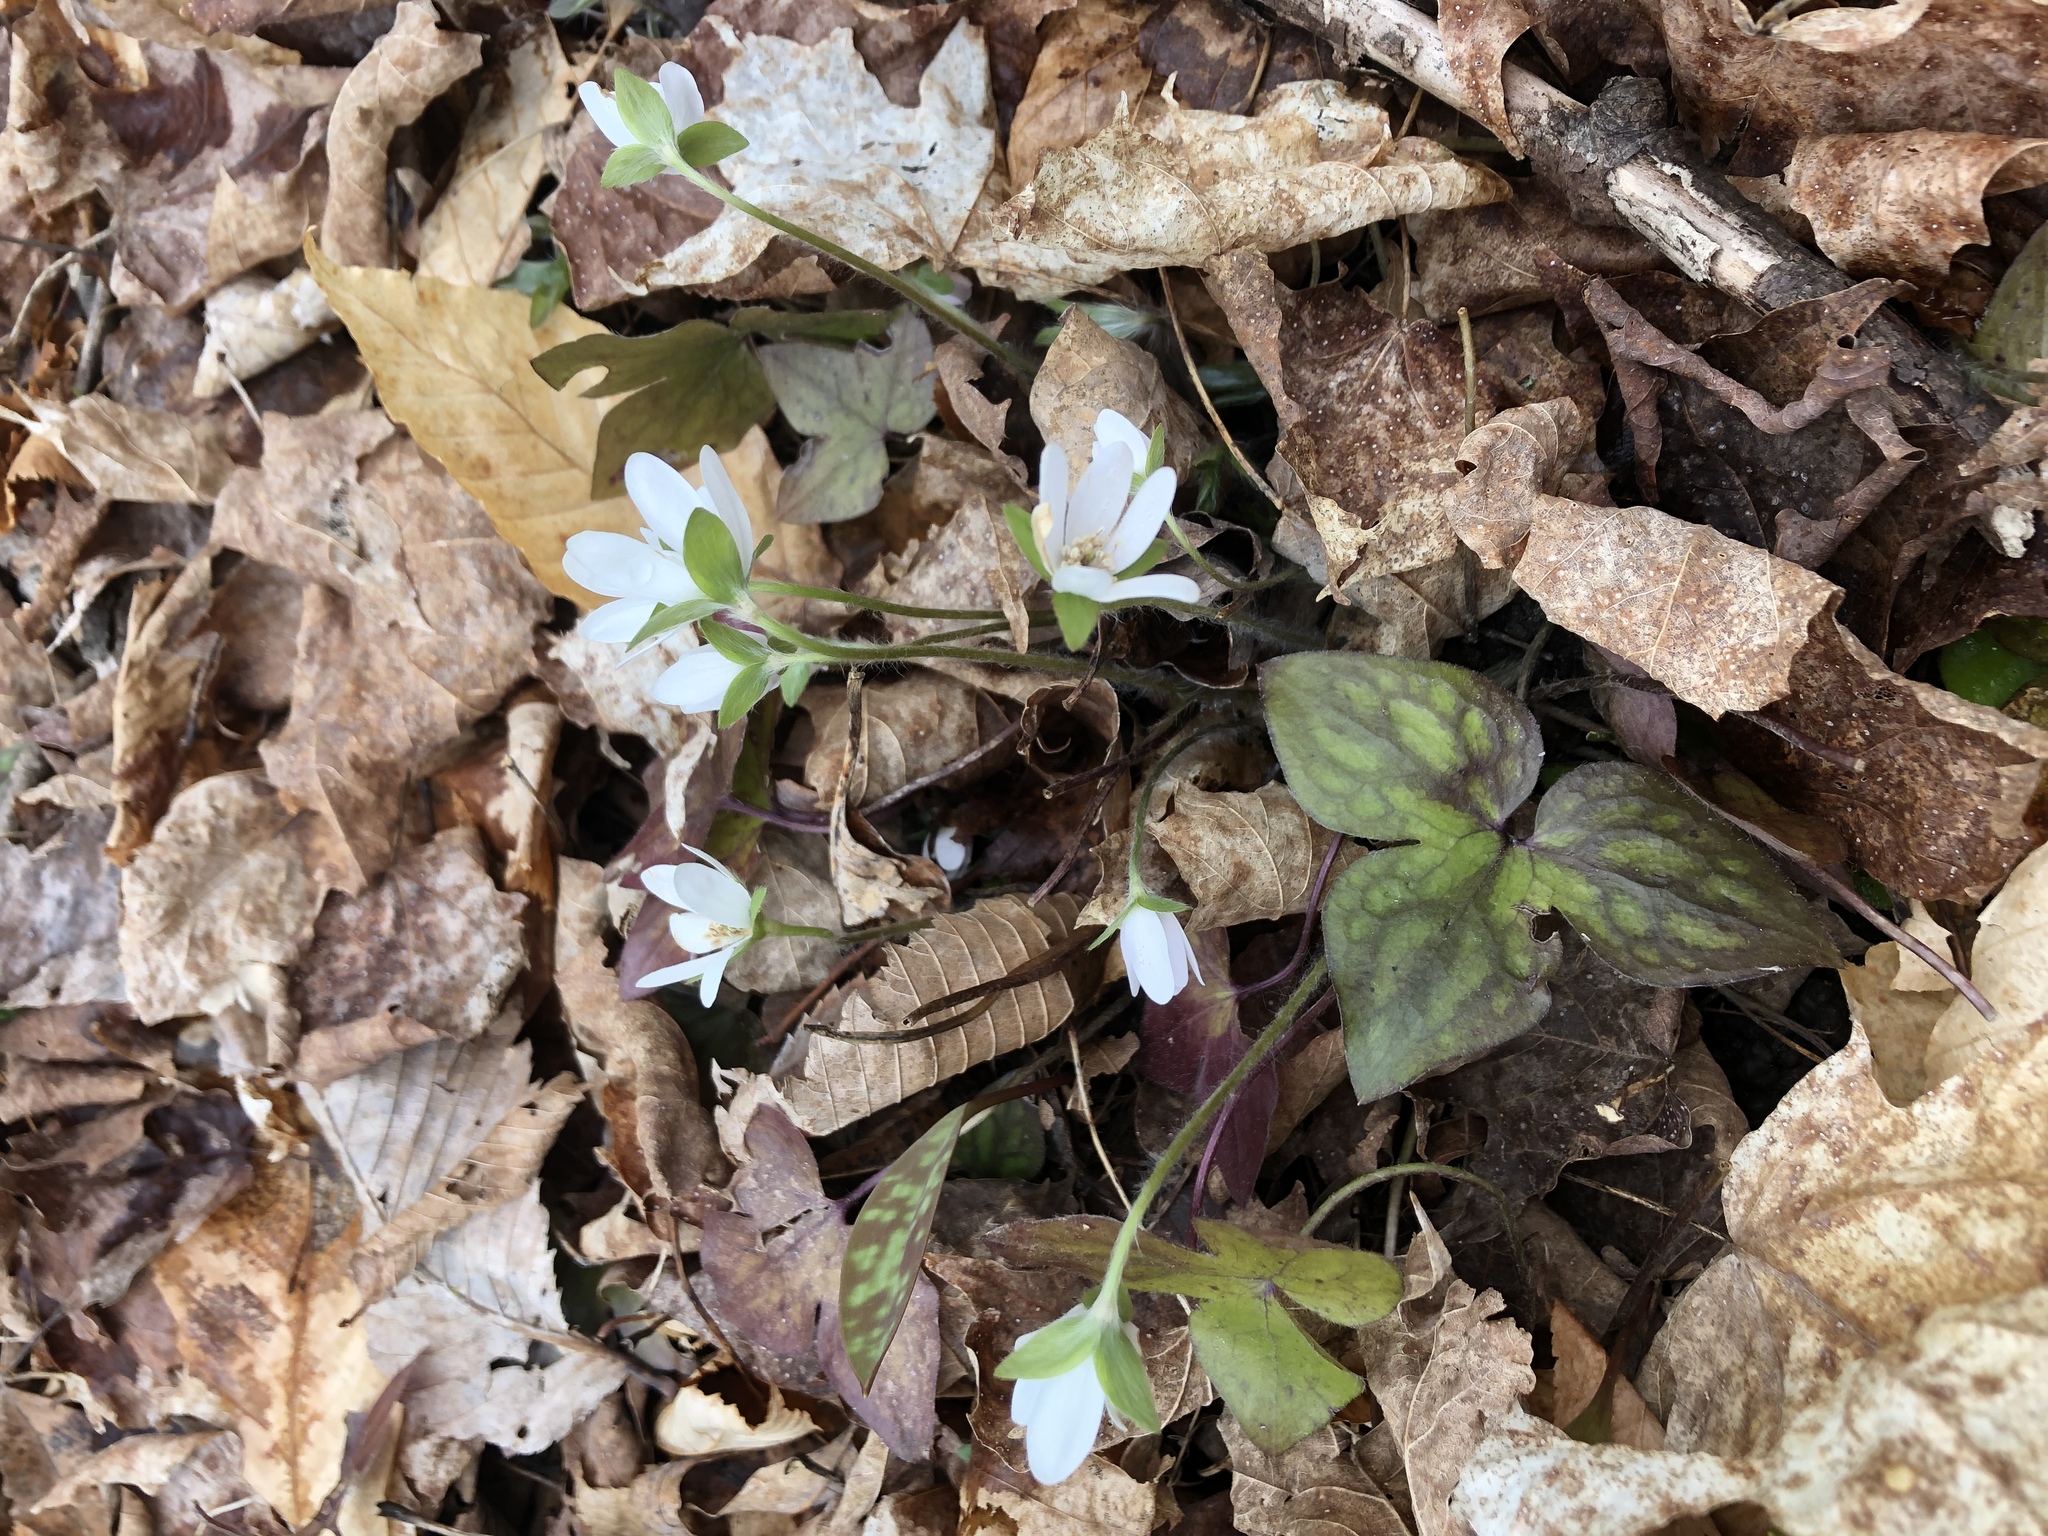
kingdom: Plantae
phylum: Tracheophyta
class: Magnoliopsida
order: Ranunculales
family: Ranunculaceae
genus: Hepatica
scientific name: Hepatica acutiloba
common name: Sharp-lobed hepatica
